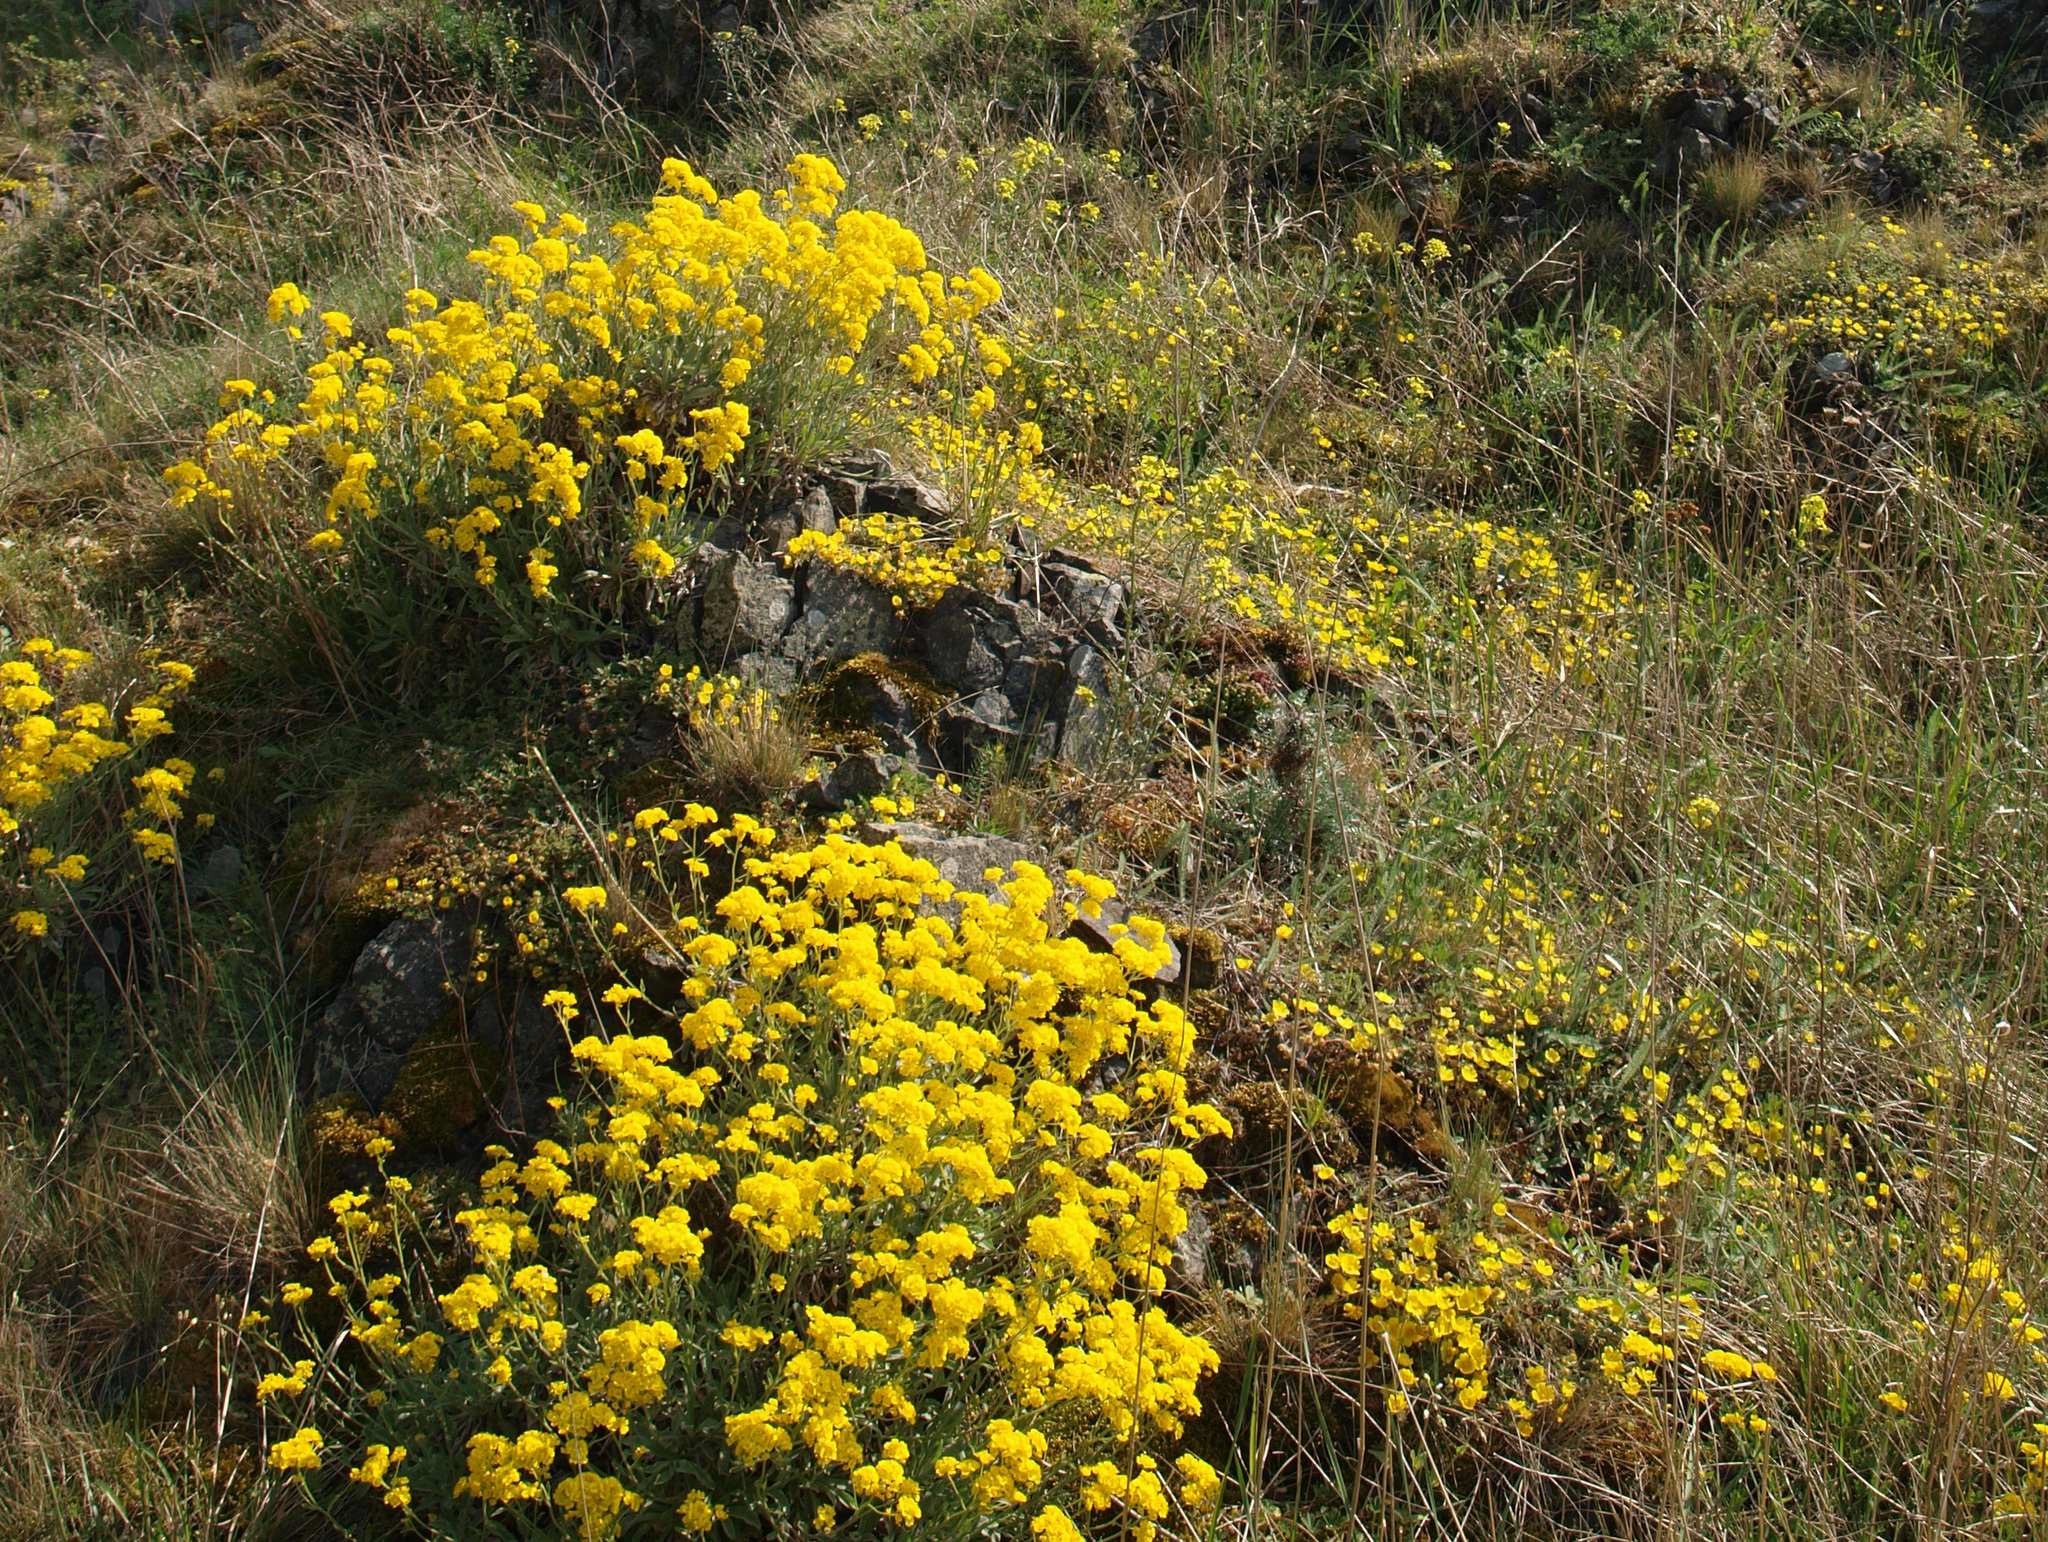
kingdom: Plantae
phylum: Tracheophyta
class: Magnoliopsida
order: Brassicales
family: Brassicaceae
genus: Aurinia
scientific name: Aurinia saxatilis
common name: Golden-tuft alyssum
